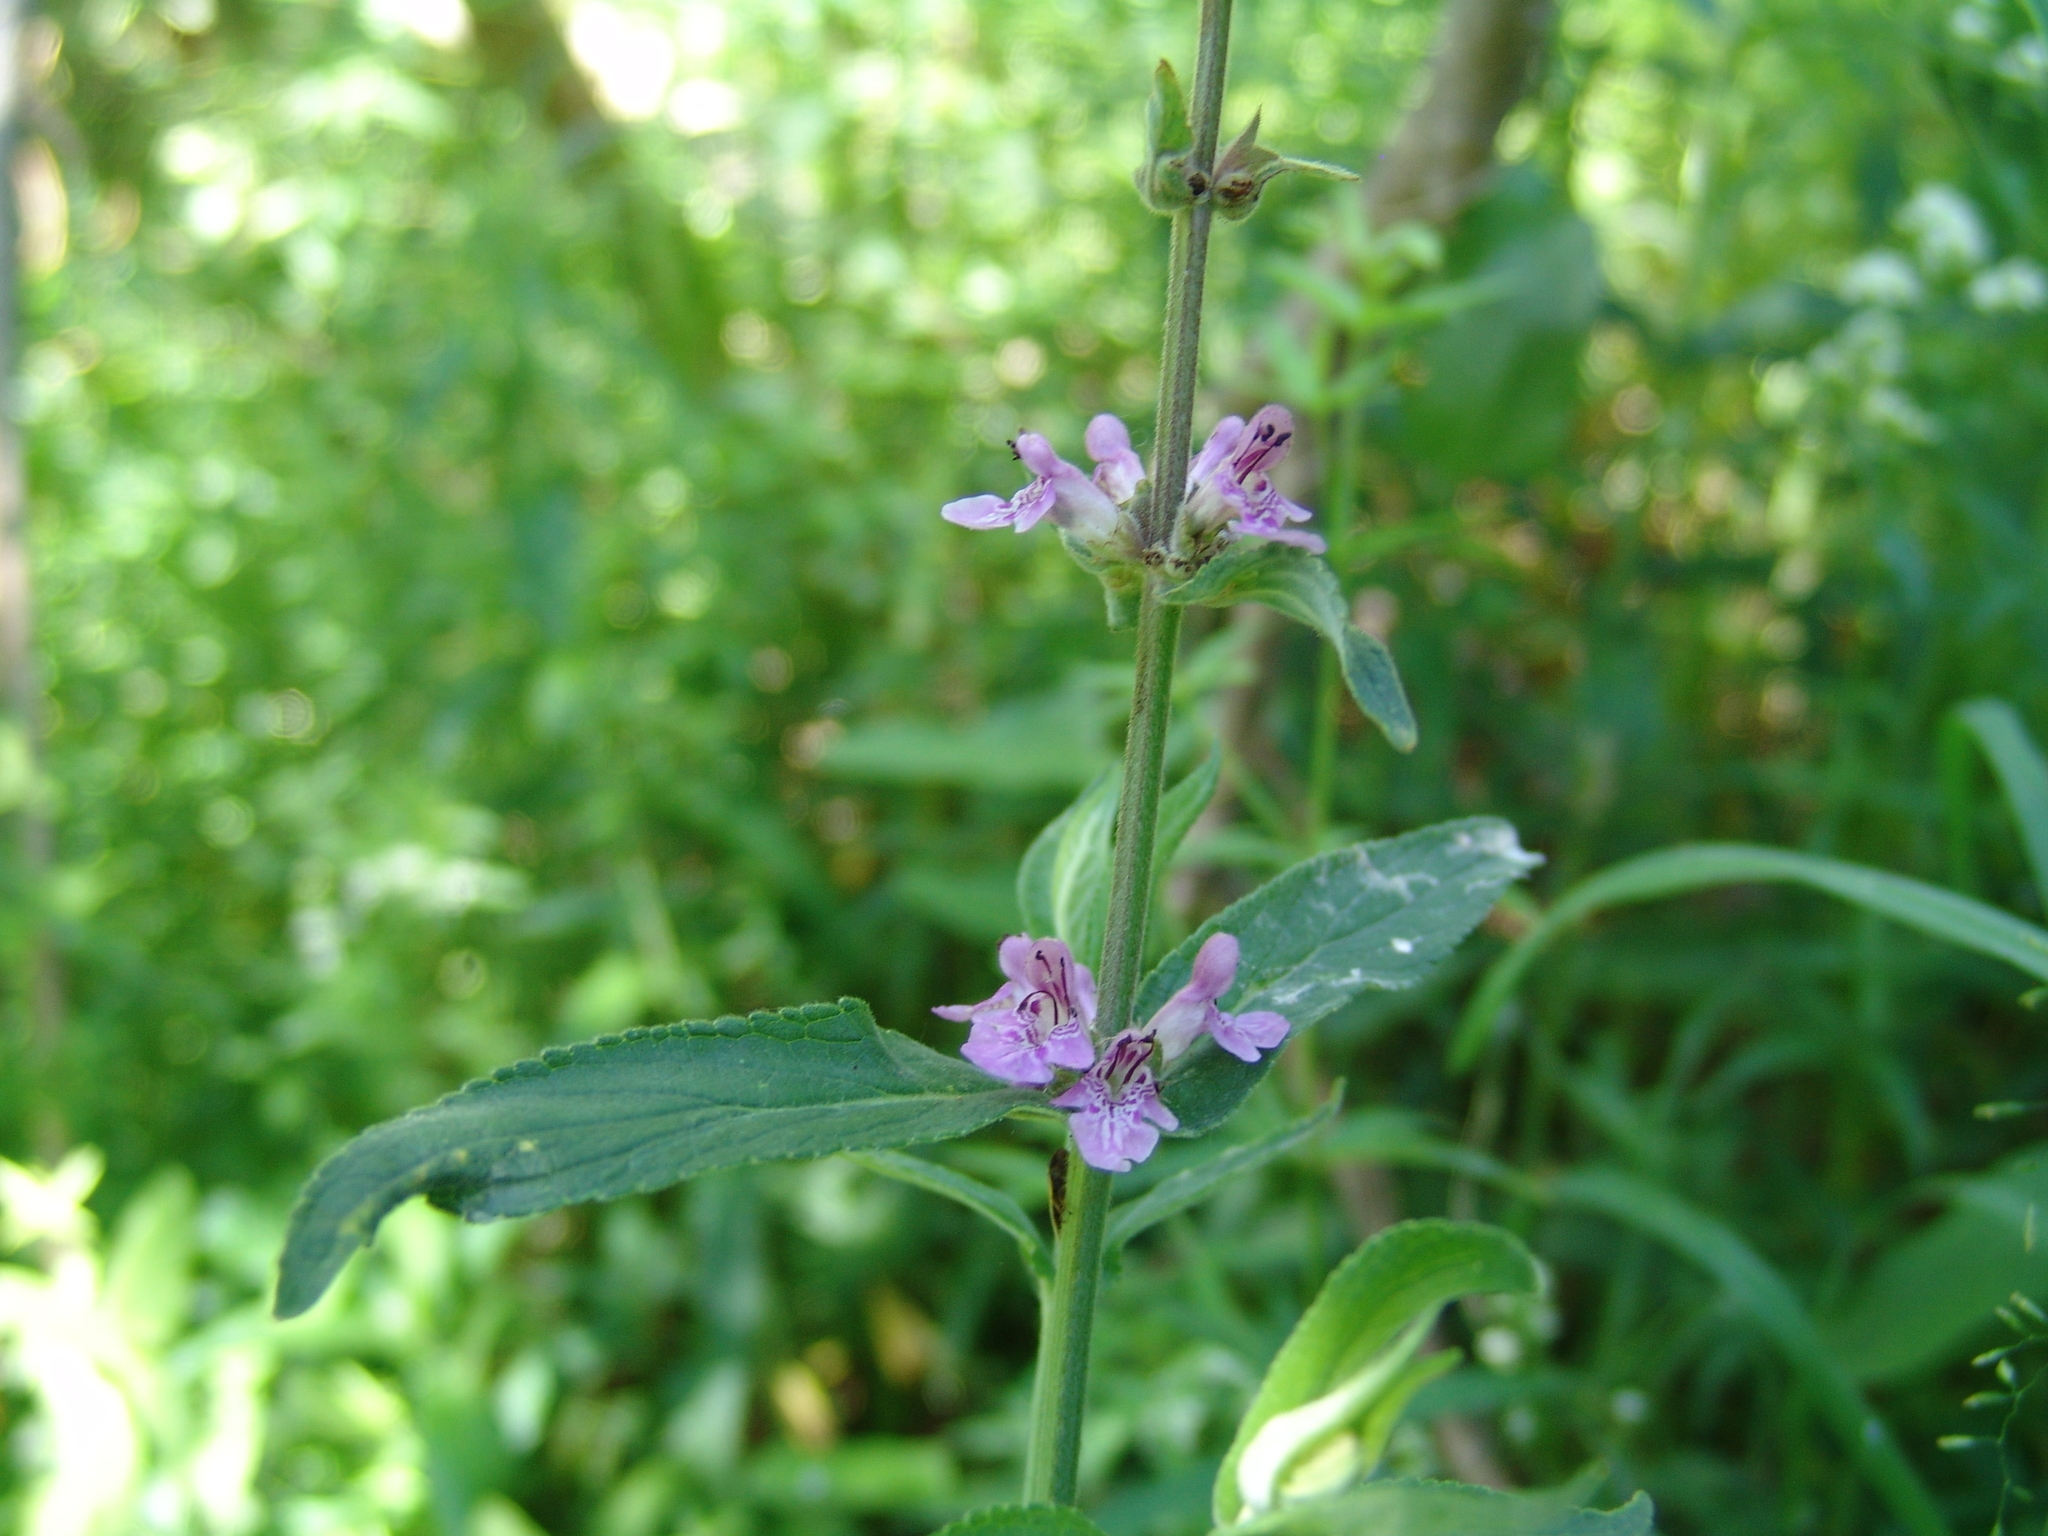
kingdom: Plantae
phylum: Tracheophyta
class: Magnoliopsida
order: Lamiales
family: Lamiaceae
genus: Stachys
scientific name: Stachys palustris
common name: Marsh woundwort
